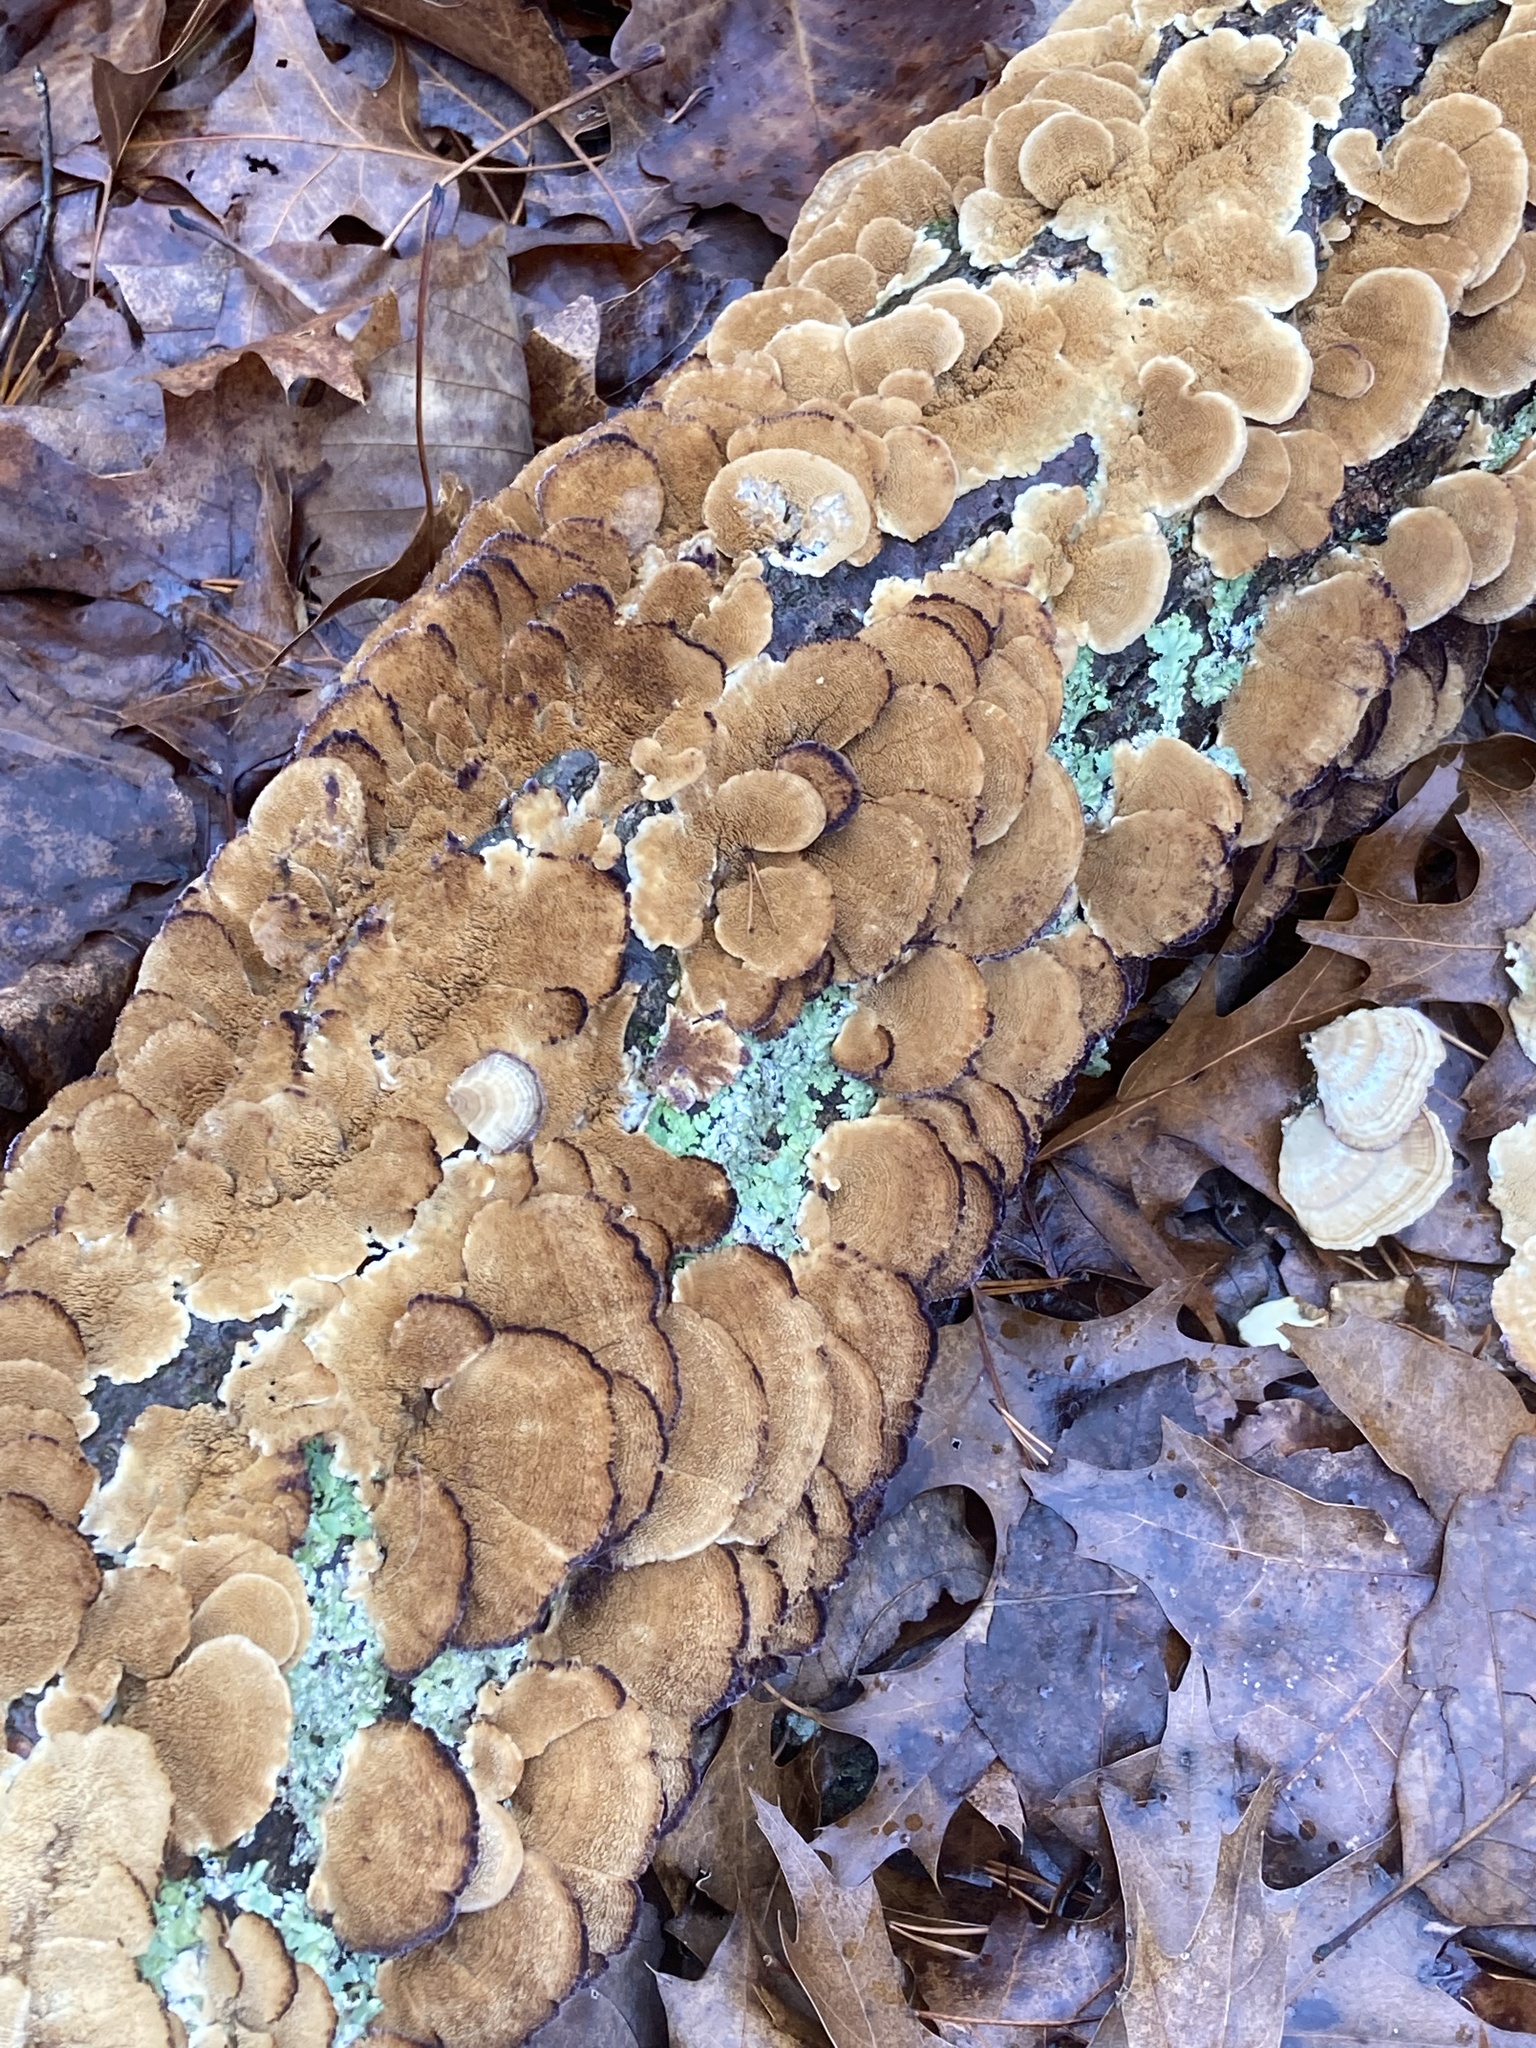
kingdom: Fungi
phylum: Basidiomycota
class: Agaricomycetes
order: Hymenochaetales
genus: Trichaptum
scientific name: Trichaptum biforme
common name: Violet-toothed polypore
